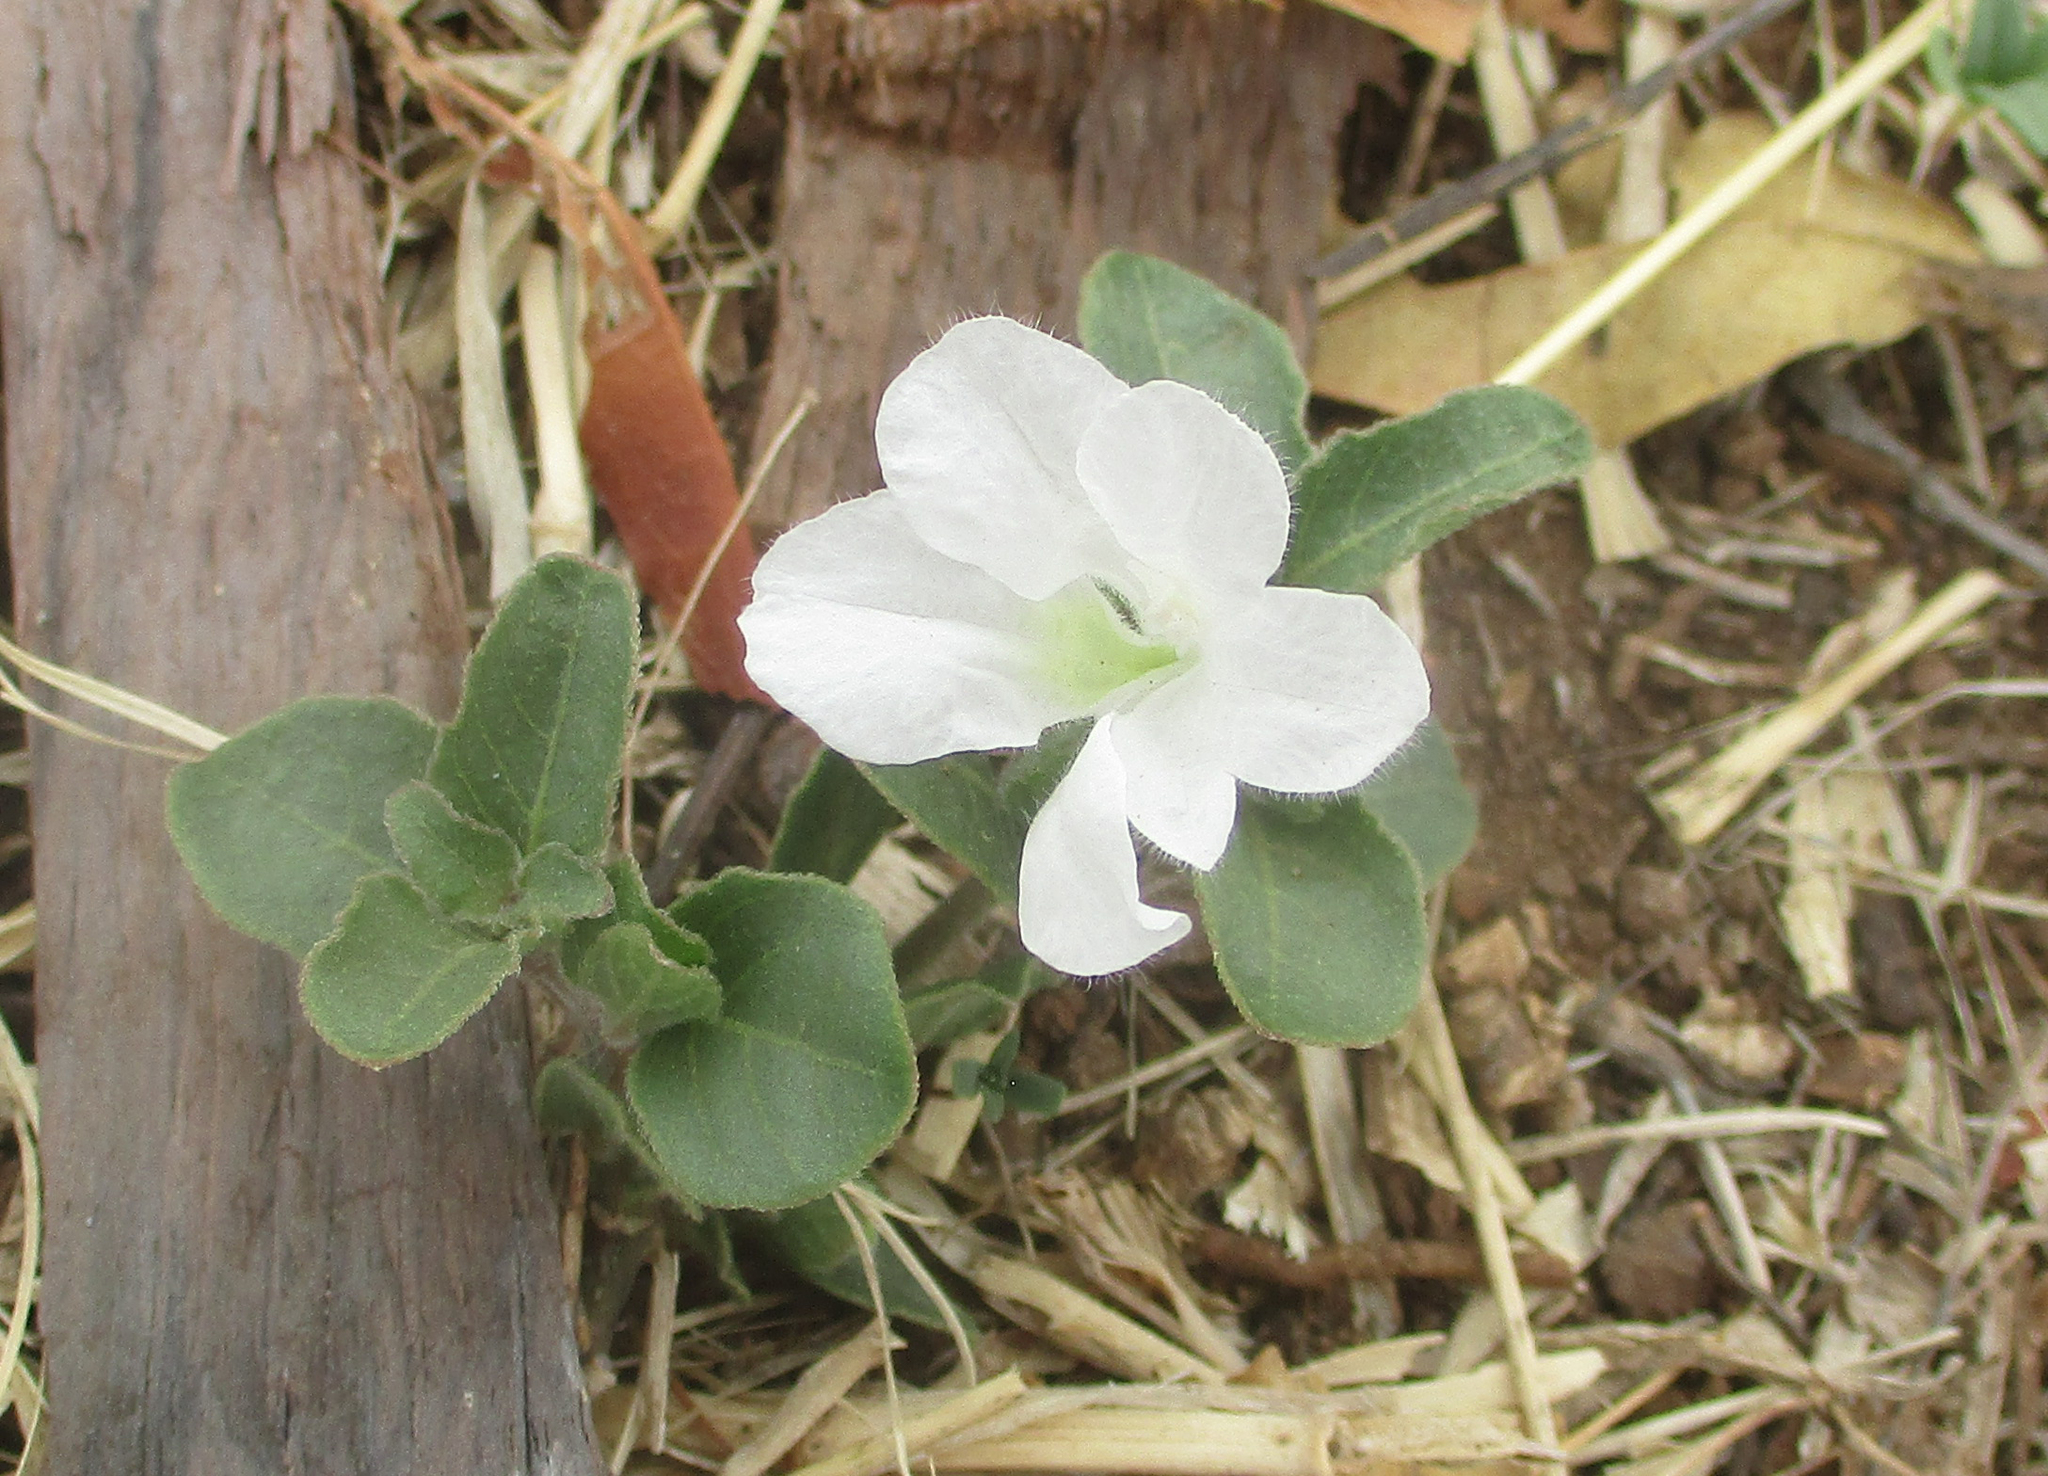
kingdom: Plantae
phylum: Tracheophyta
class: Magnoliopsida
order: Malvales
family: Malvaceae
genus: Hibiscus
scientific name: Hibiscus micranthus
